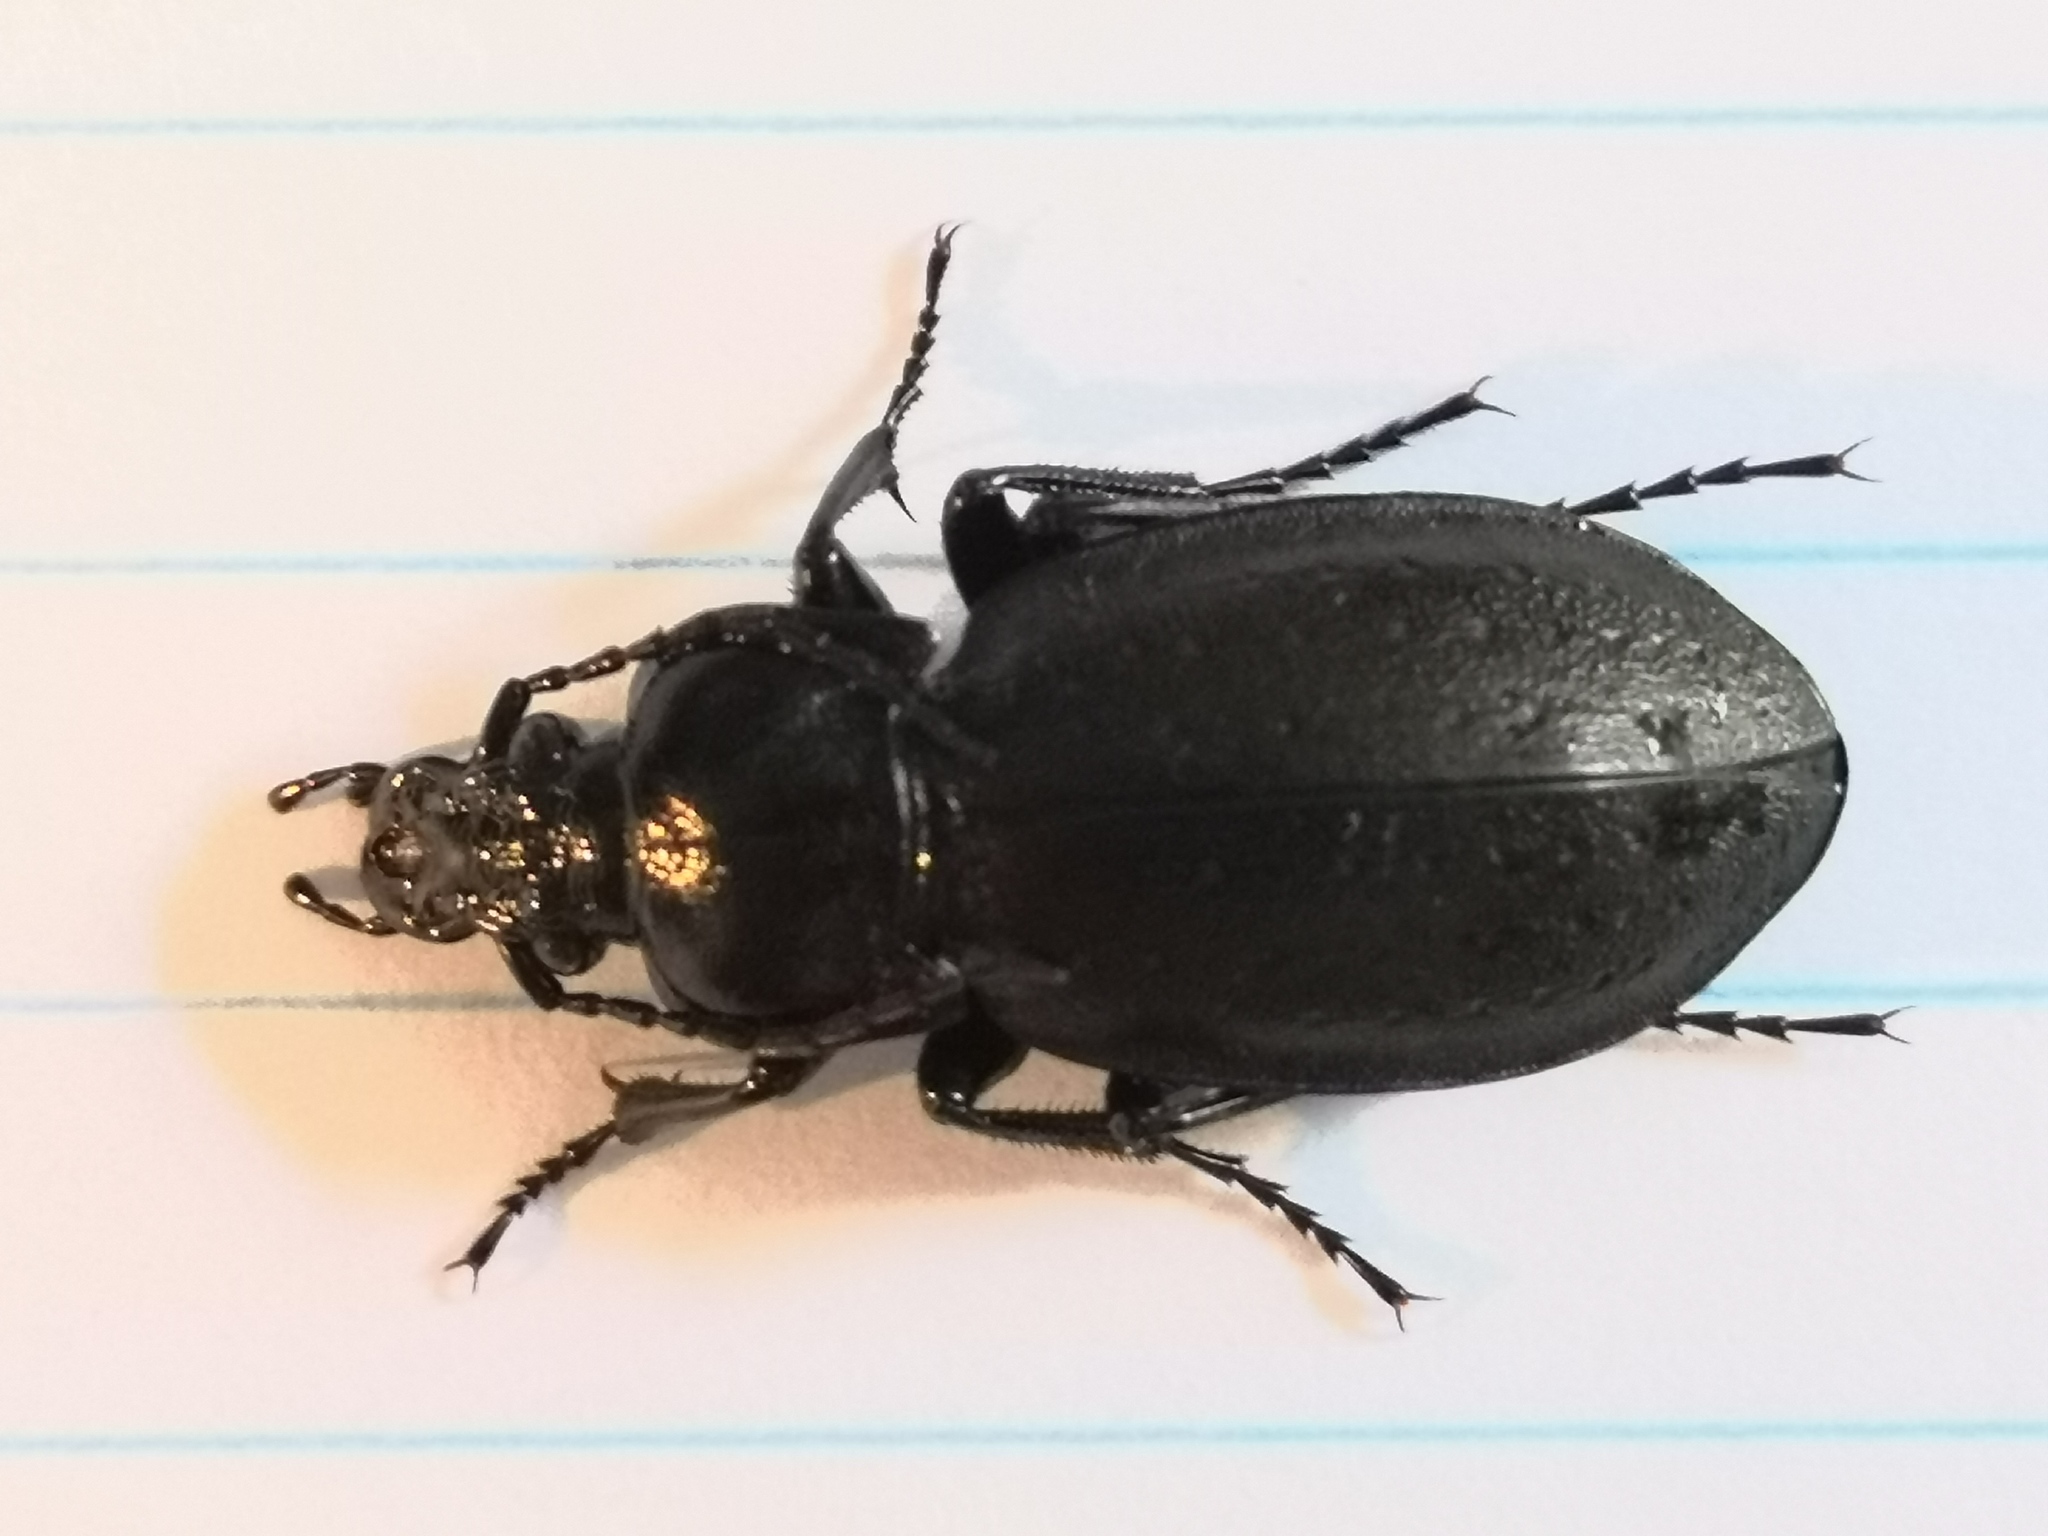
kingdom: Animalia
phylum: Arthropoda
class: Insecta
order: Coleoptera
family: Carabidae
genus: Carabus
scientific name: Carabus nemoralis
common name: European ground beetle
